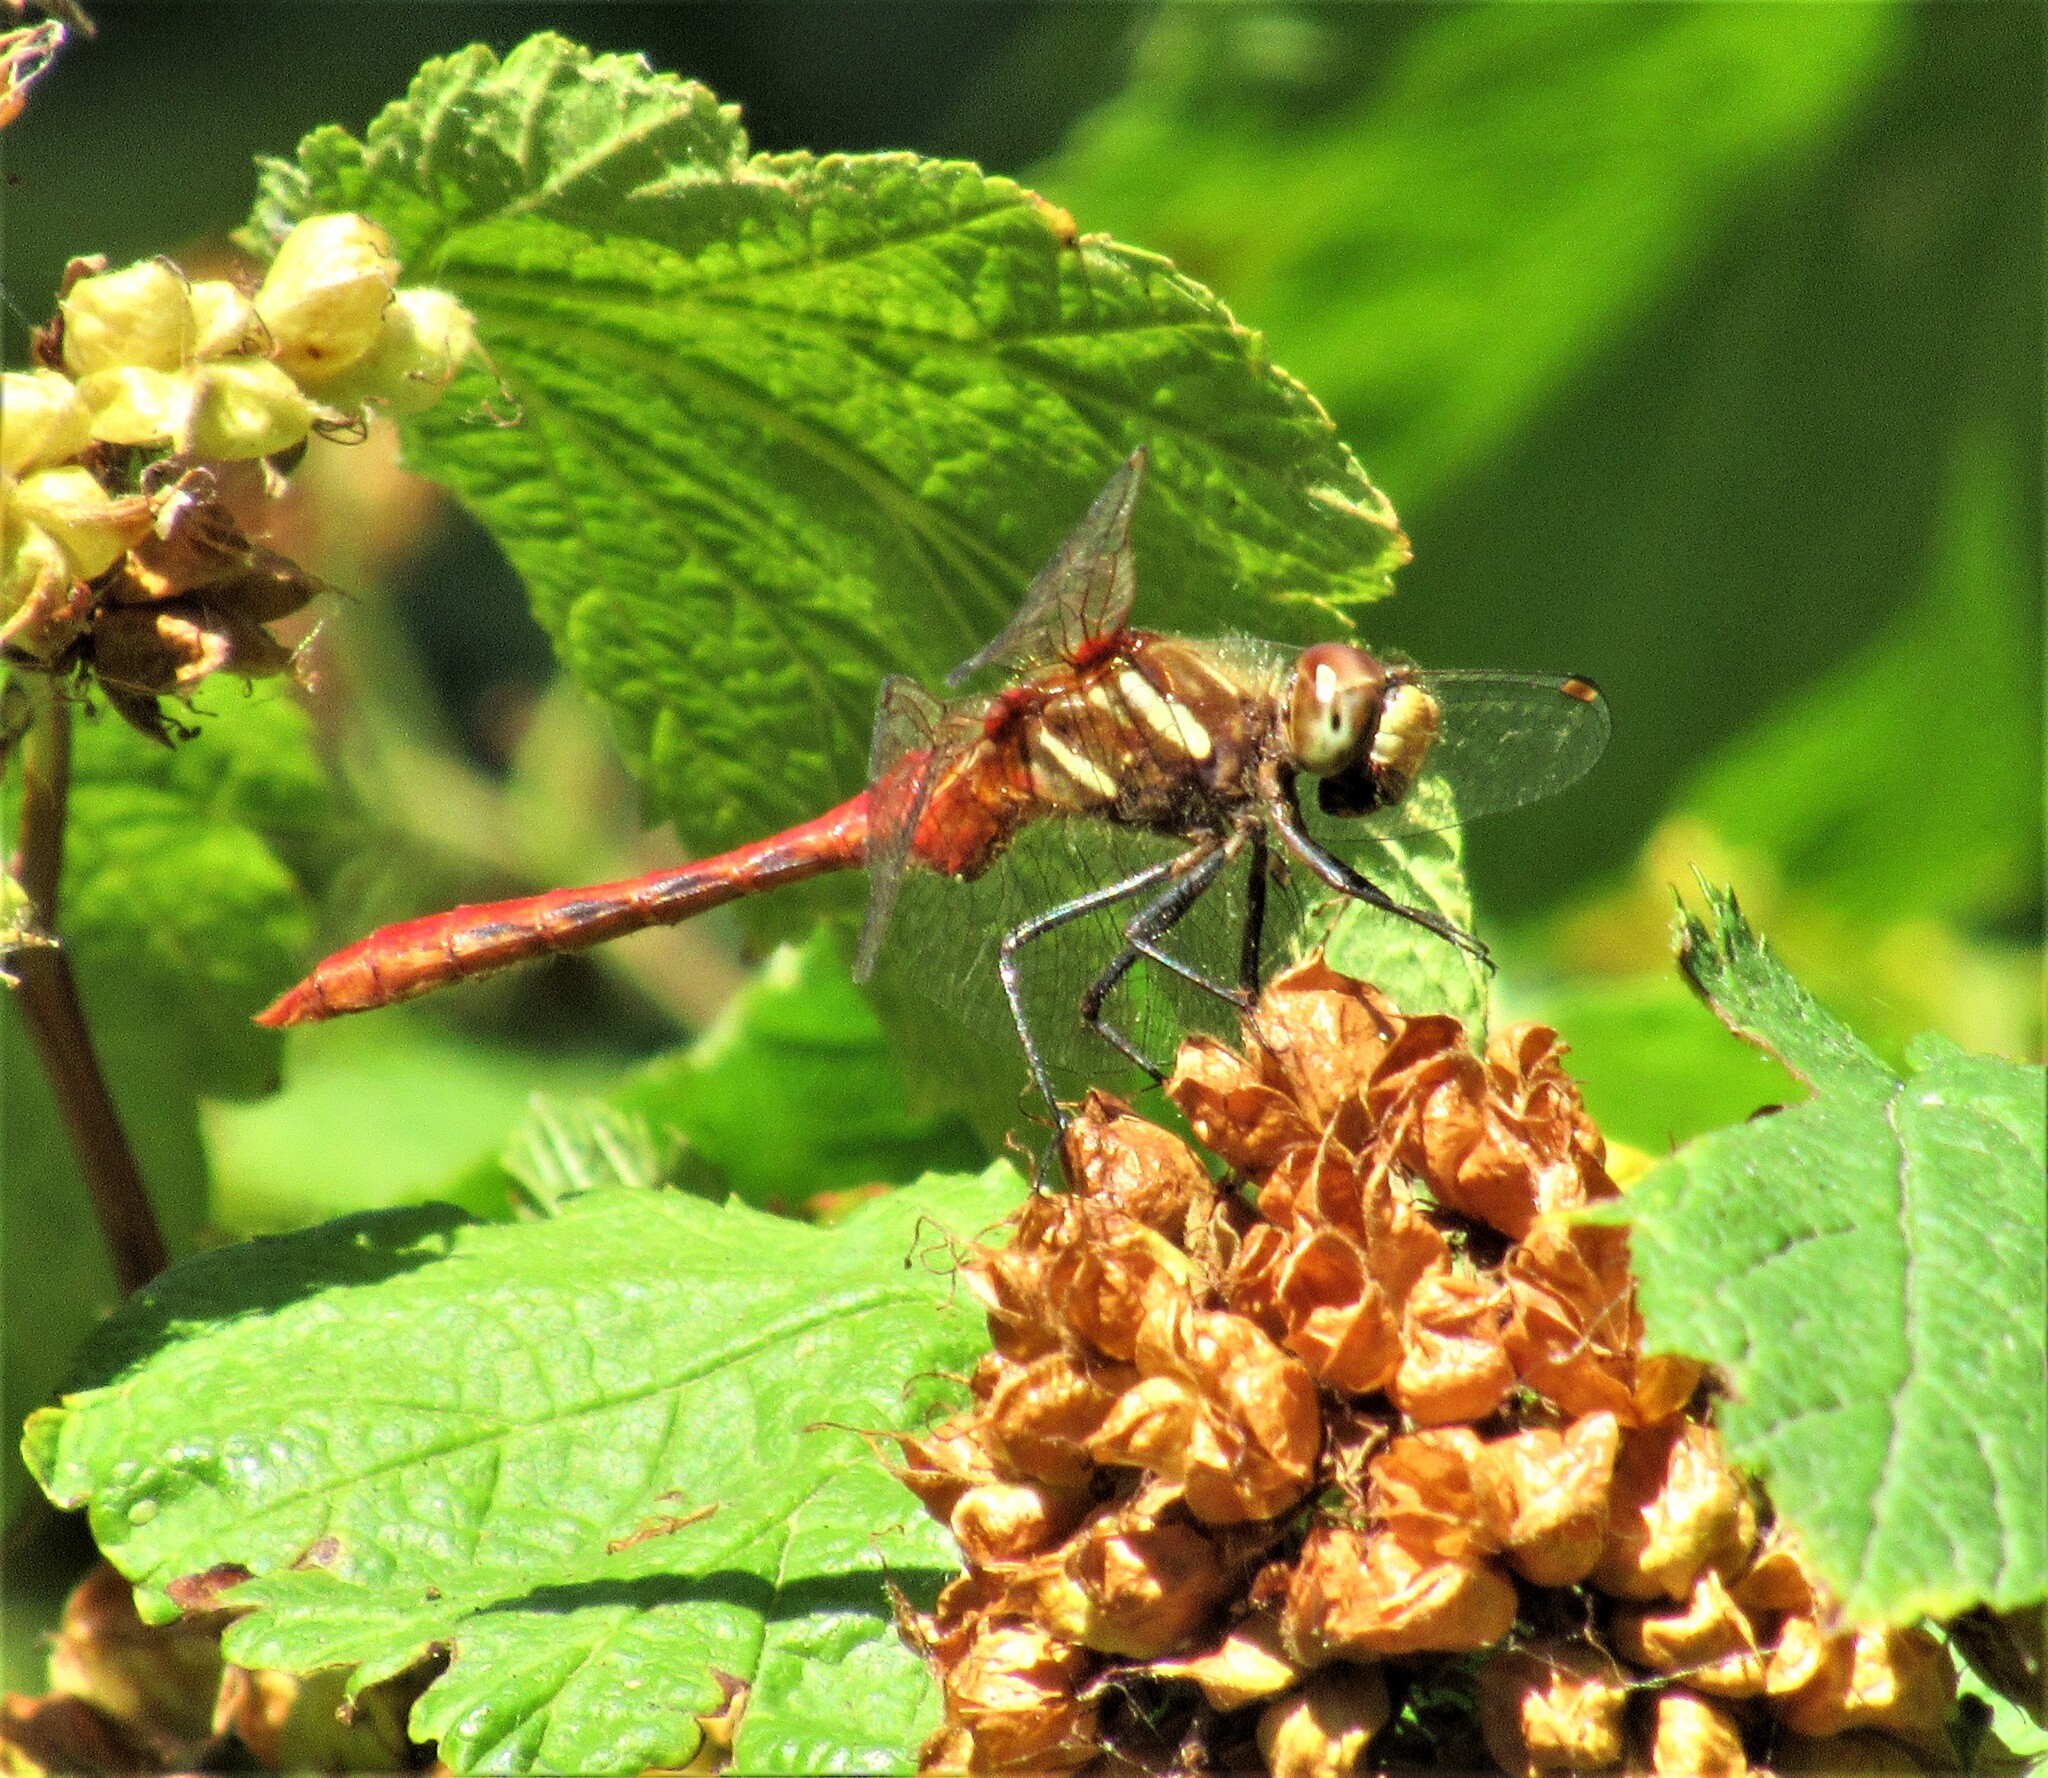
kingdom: Animalia
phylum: Arthropoda
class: Insecta
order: Odonata
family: Libellulidae
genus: Sympetrum
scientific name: Sympetrum pallipes
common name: Striped meadowhawk
